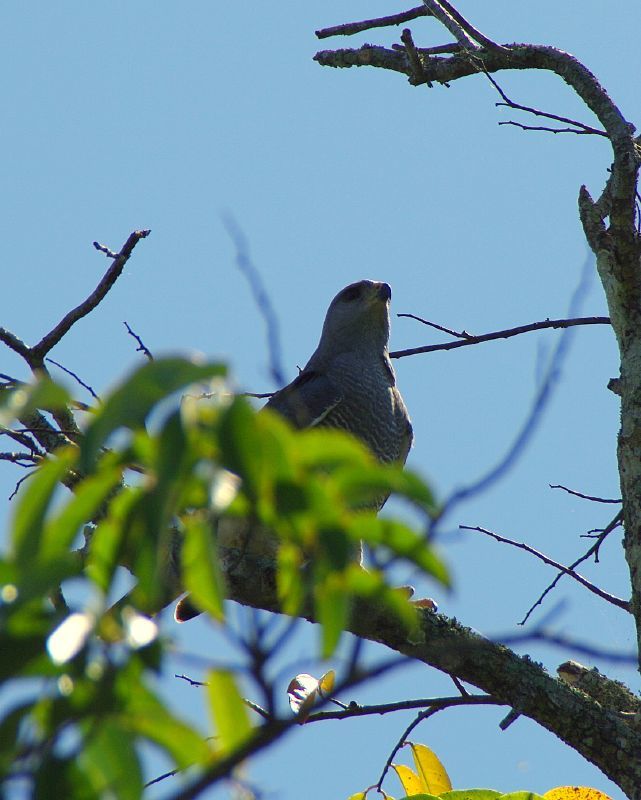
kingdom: Animalia
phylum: Chordata
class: Aves
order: Accipitriformes
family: Accipitridae
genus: Buteo
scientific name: Buteo nitidus
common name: Grey-lined hawk
